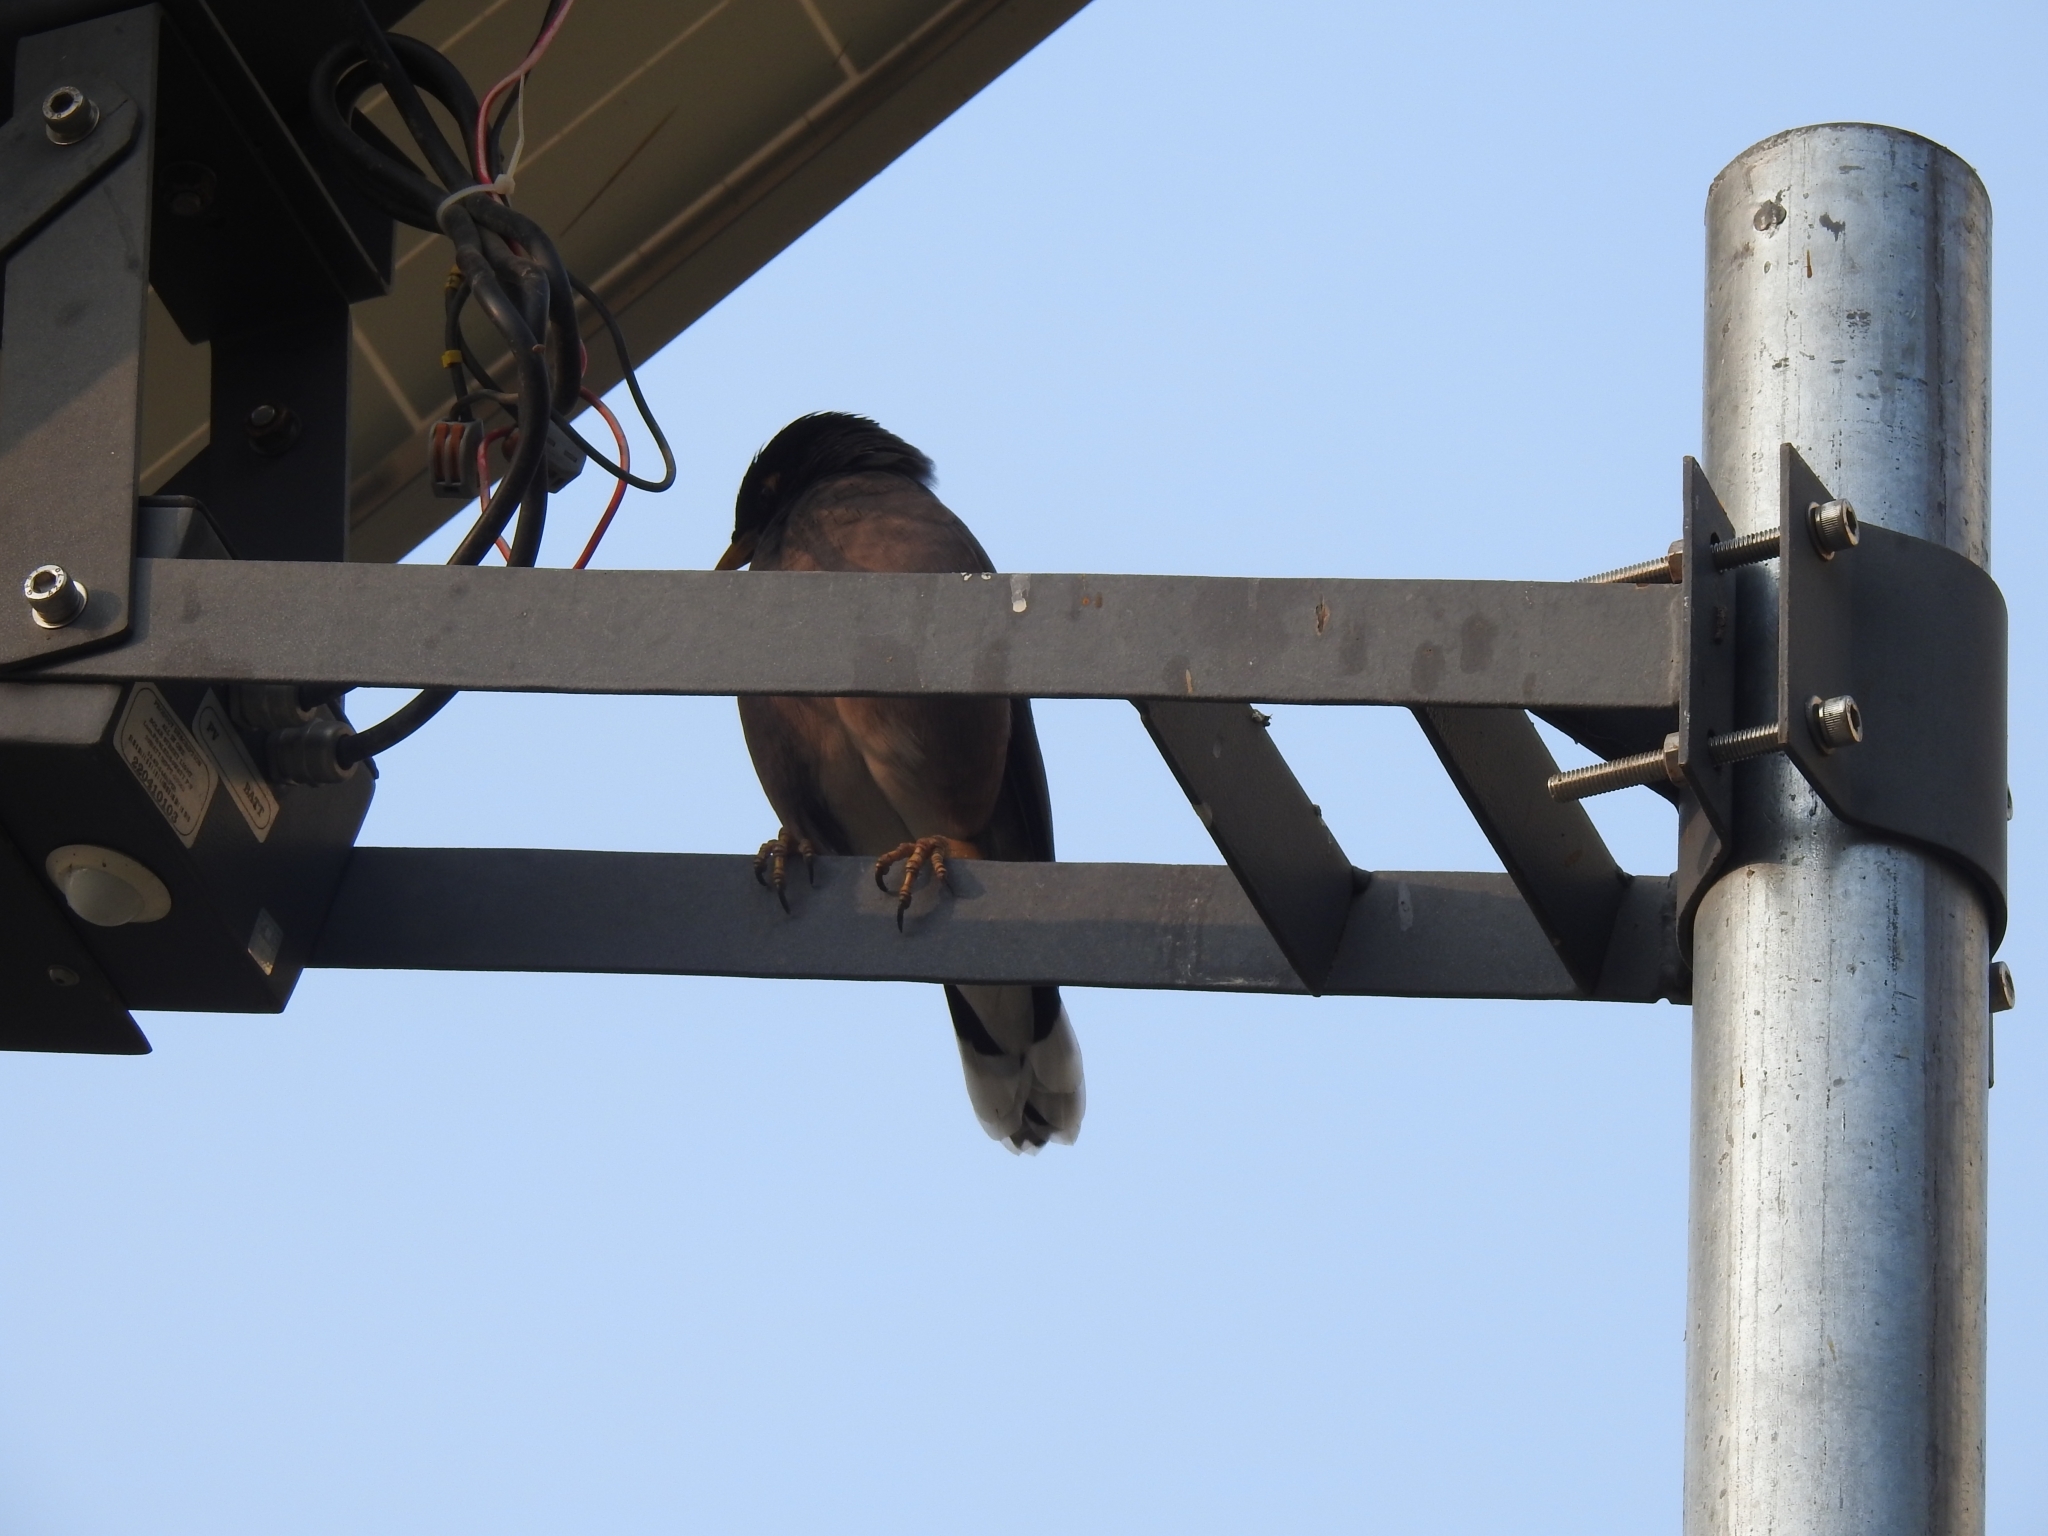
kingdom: Animalia
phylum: Chordata
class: Aves
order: Passeriformes
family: Sturnidae
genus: Acridotheres
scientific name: Acridotheres tristis
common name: Common myna
